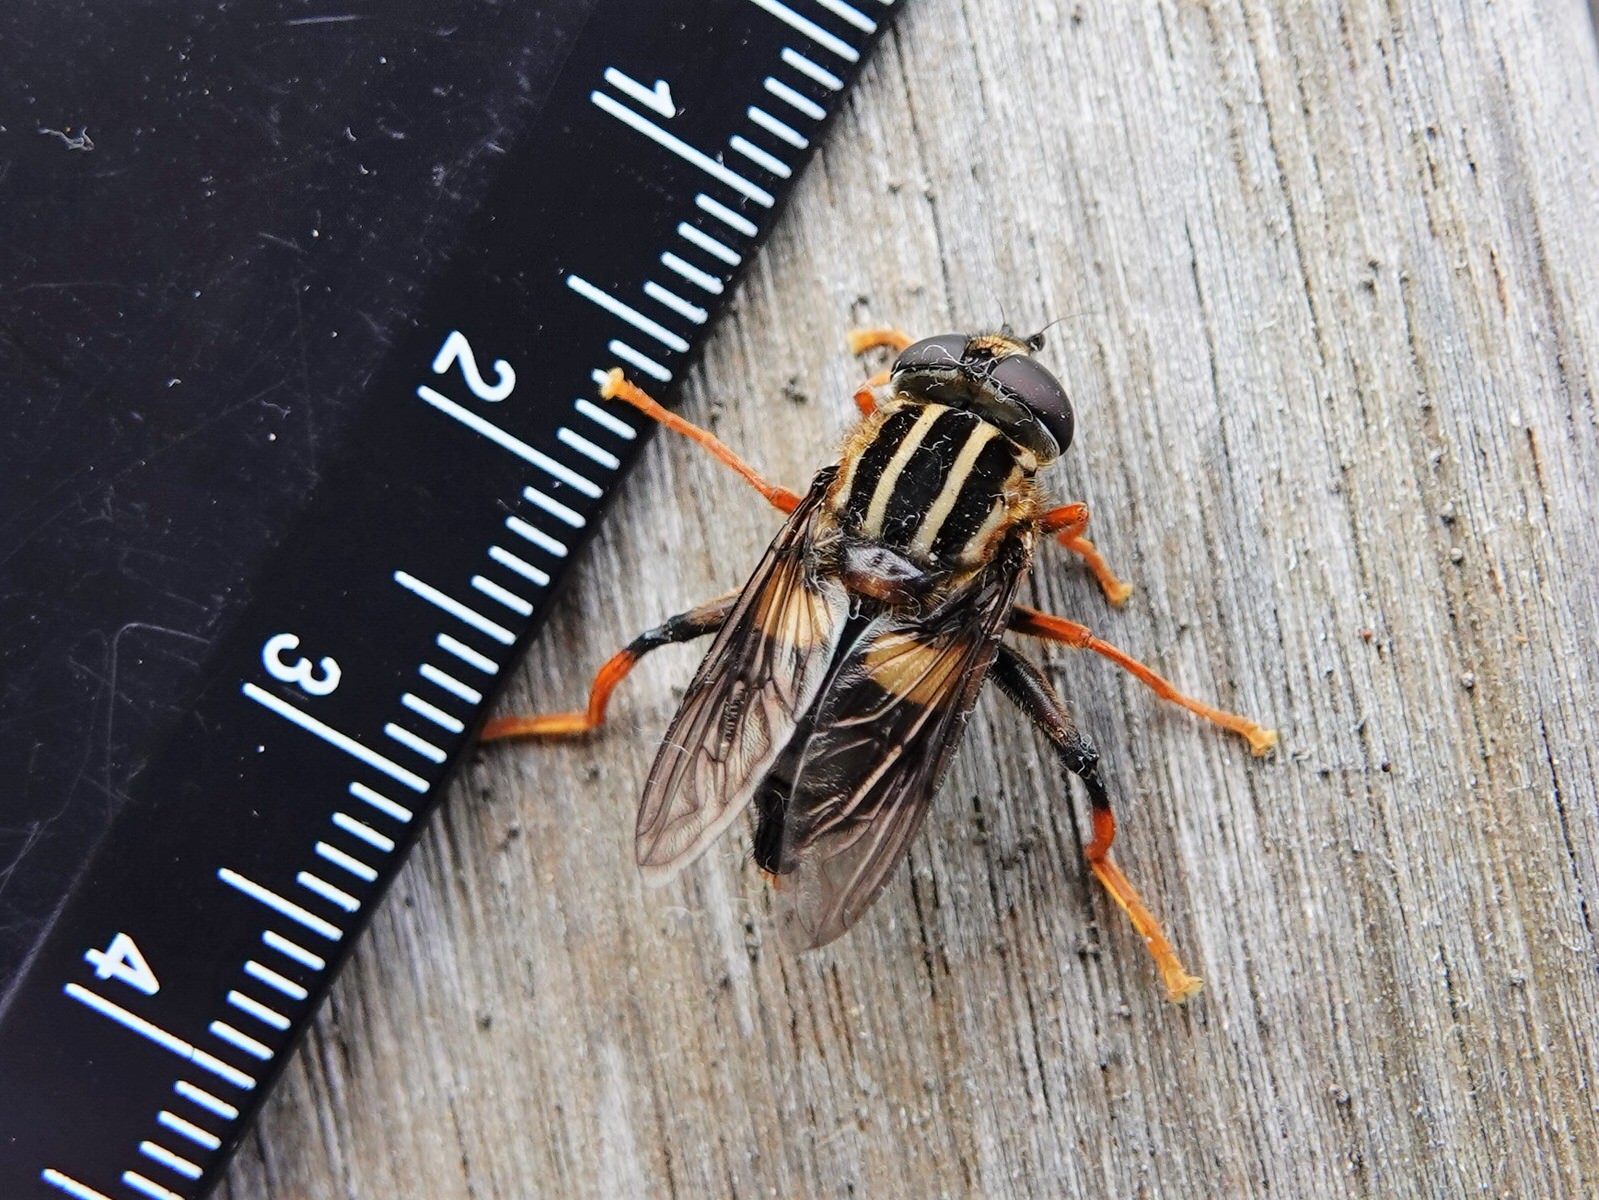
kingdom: Animalia
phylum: Arthropoda
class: Insecta
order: Diptera
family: Syrphidae
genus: Helophilus
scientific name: Helophilus seelandicus
